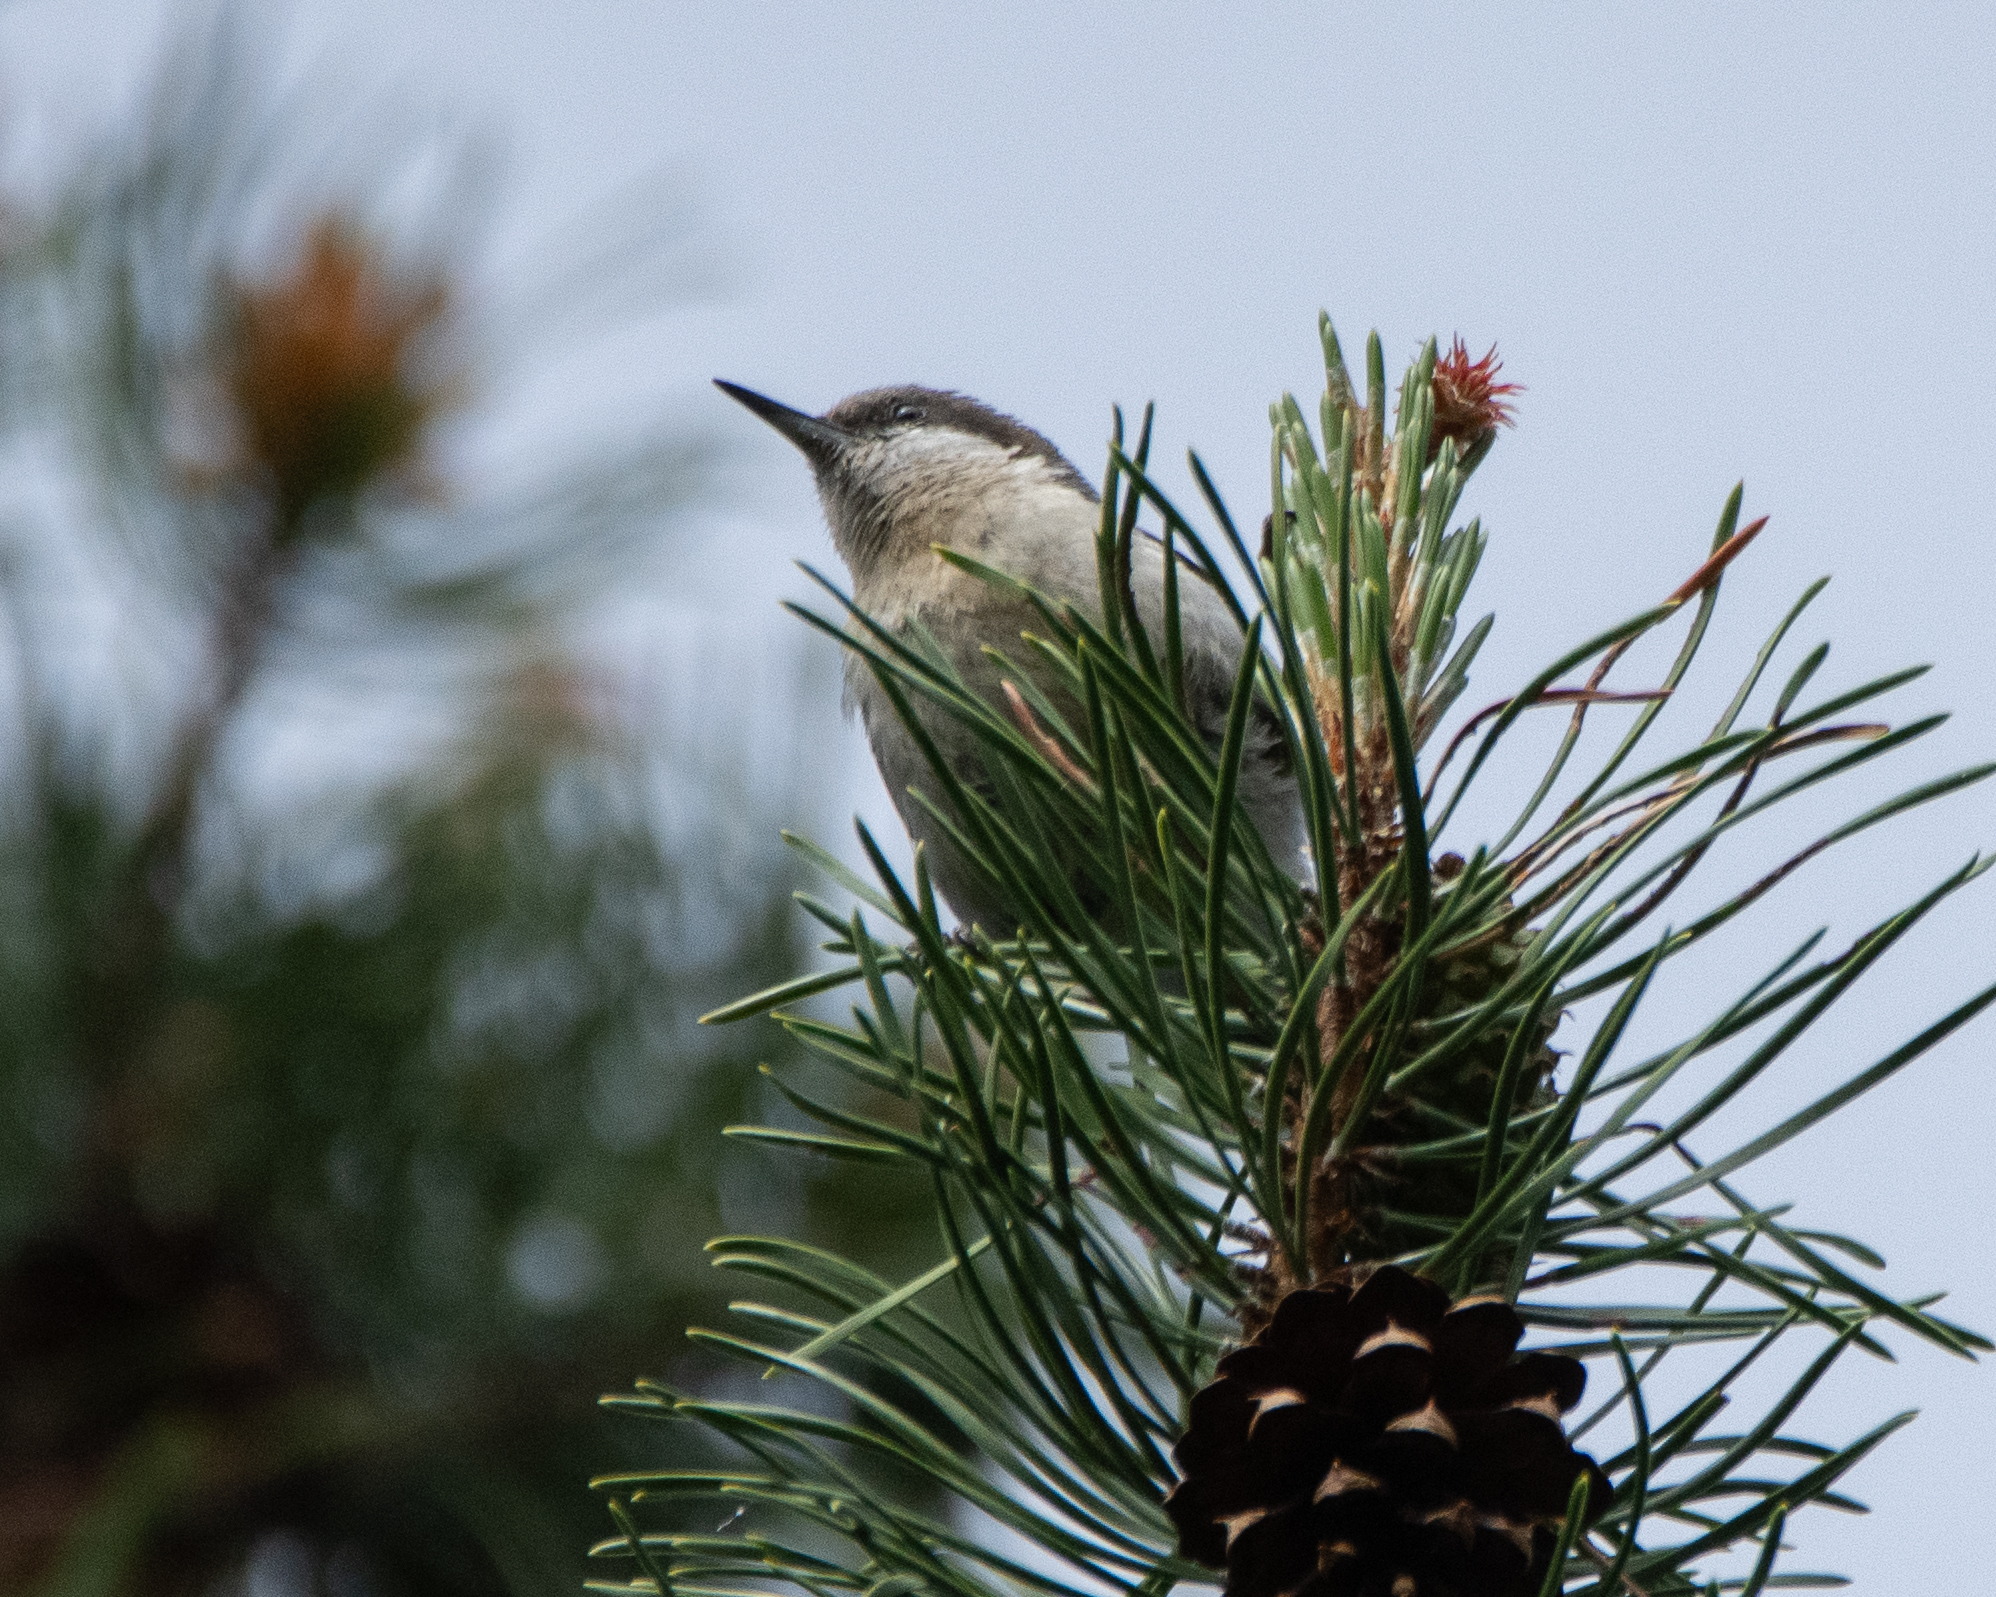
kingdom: Animalia
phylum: Chordata
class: Aves
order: Passeriformes
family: Sittidae
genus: Sitta
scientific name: Sitta pygmaea
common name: Pygmy nuthatch
